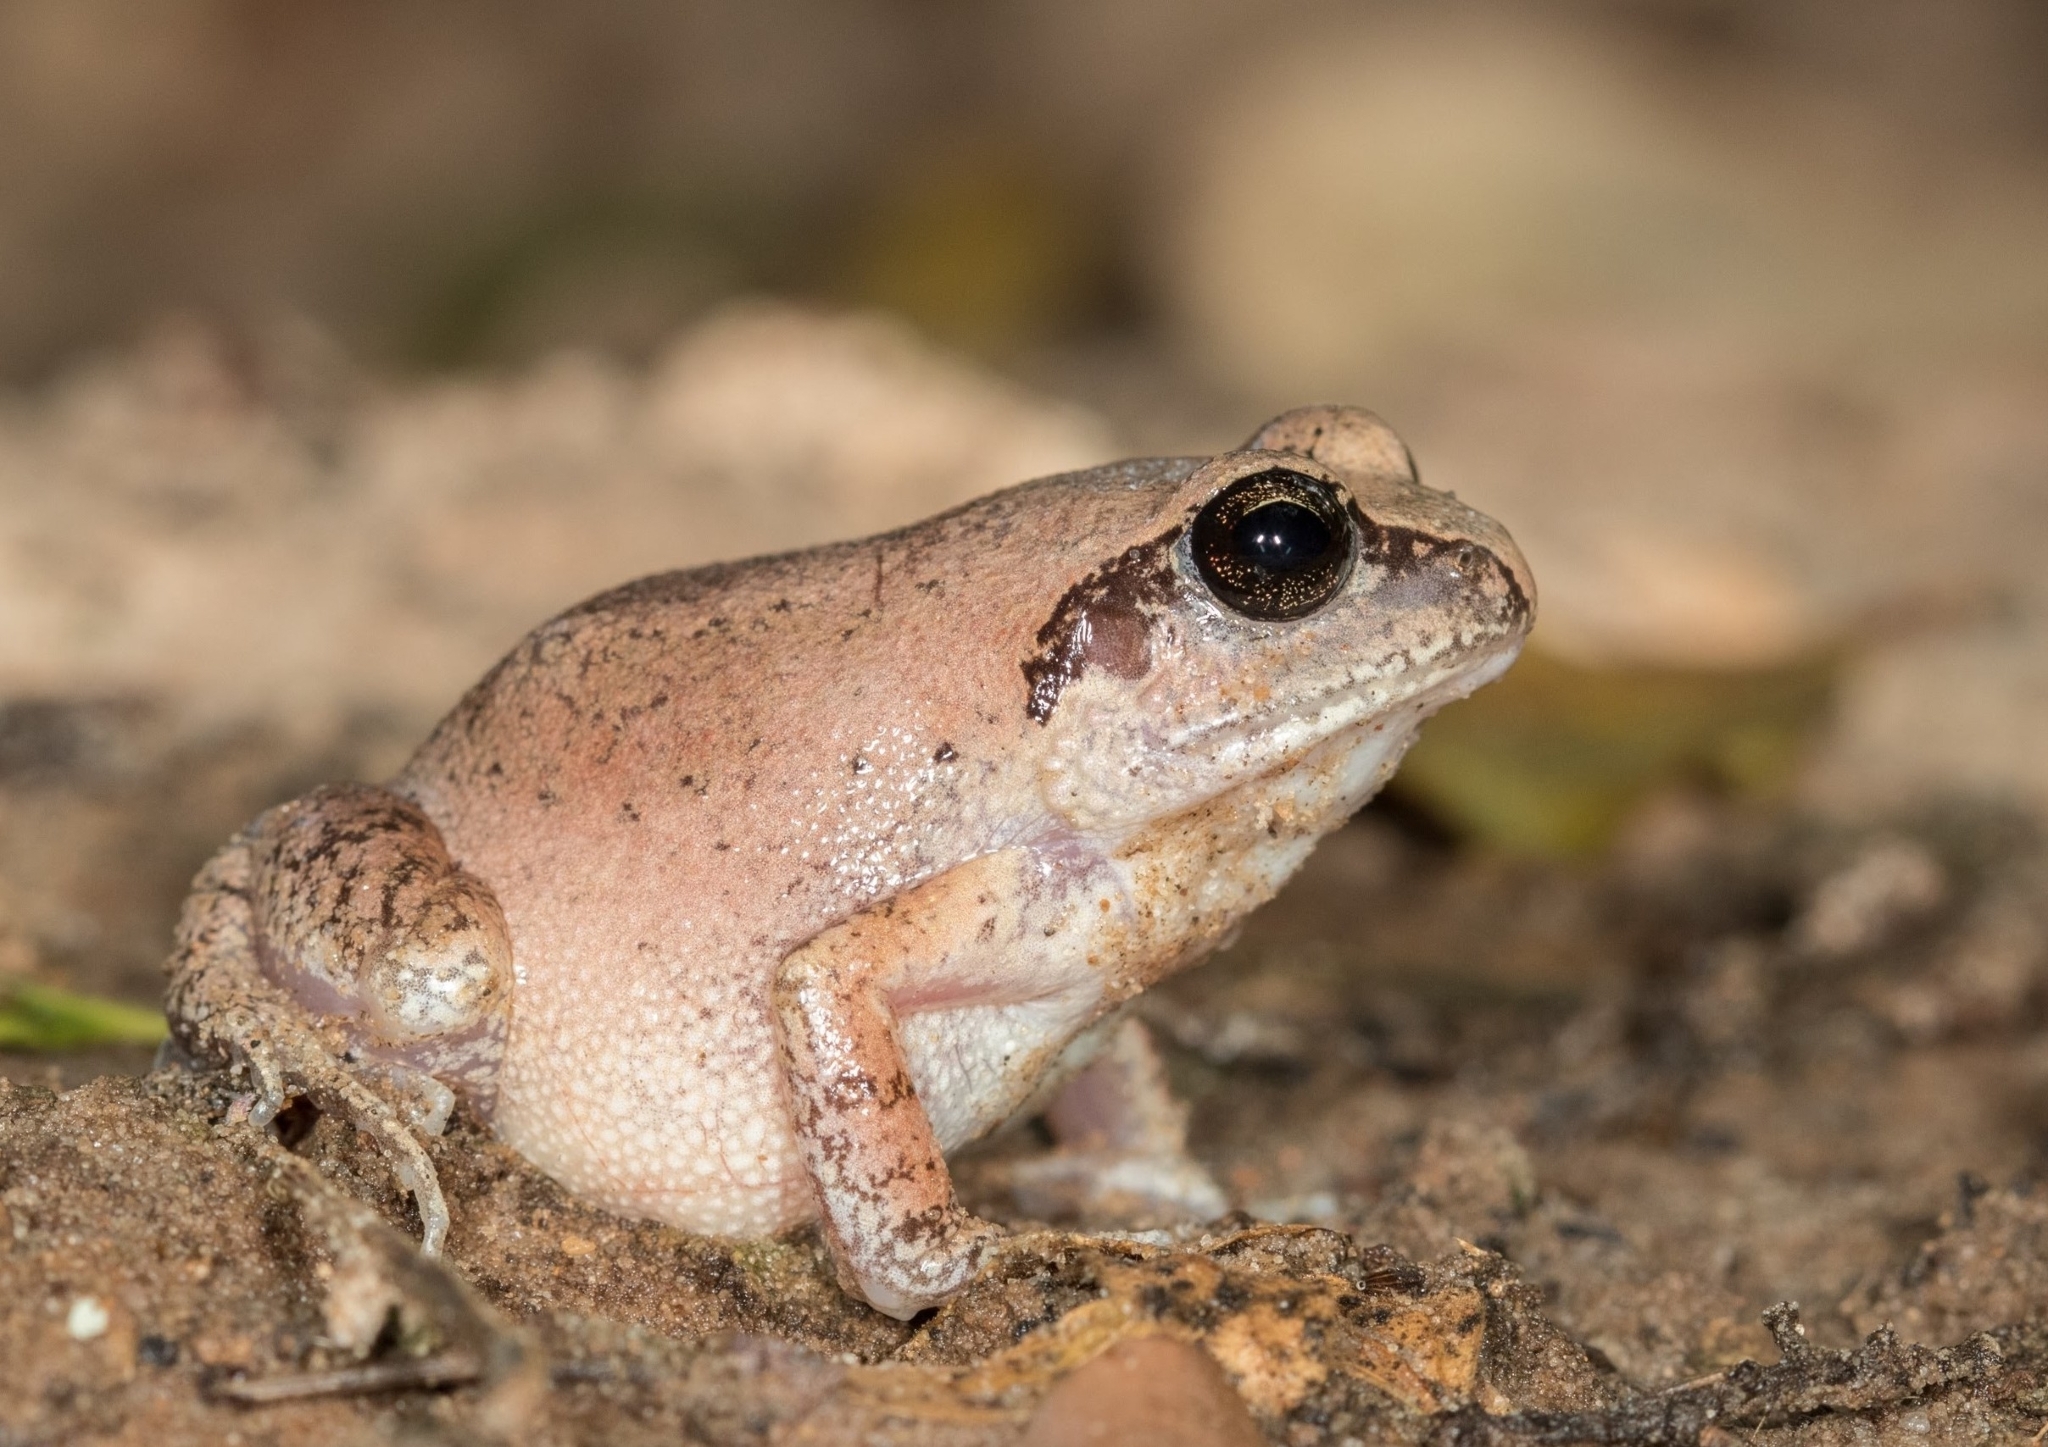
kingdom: Animalia
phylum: Chordata
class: Amphibia
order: Anura
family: Arthroleptidae
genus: Arthroleptis
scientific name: Arthroleptis stenodactylus
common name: Dune squeaker
